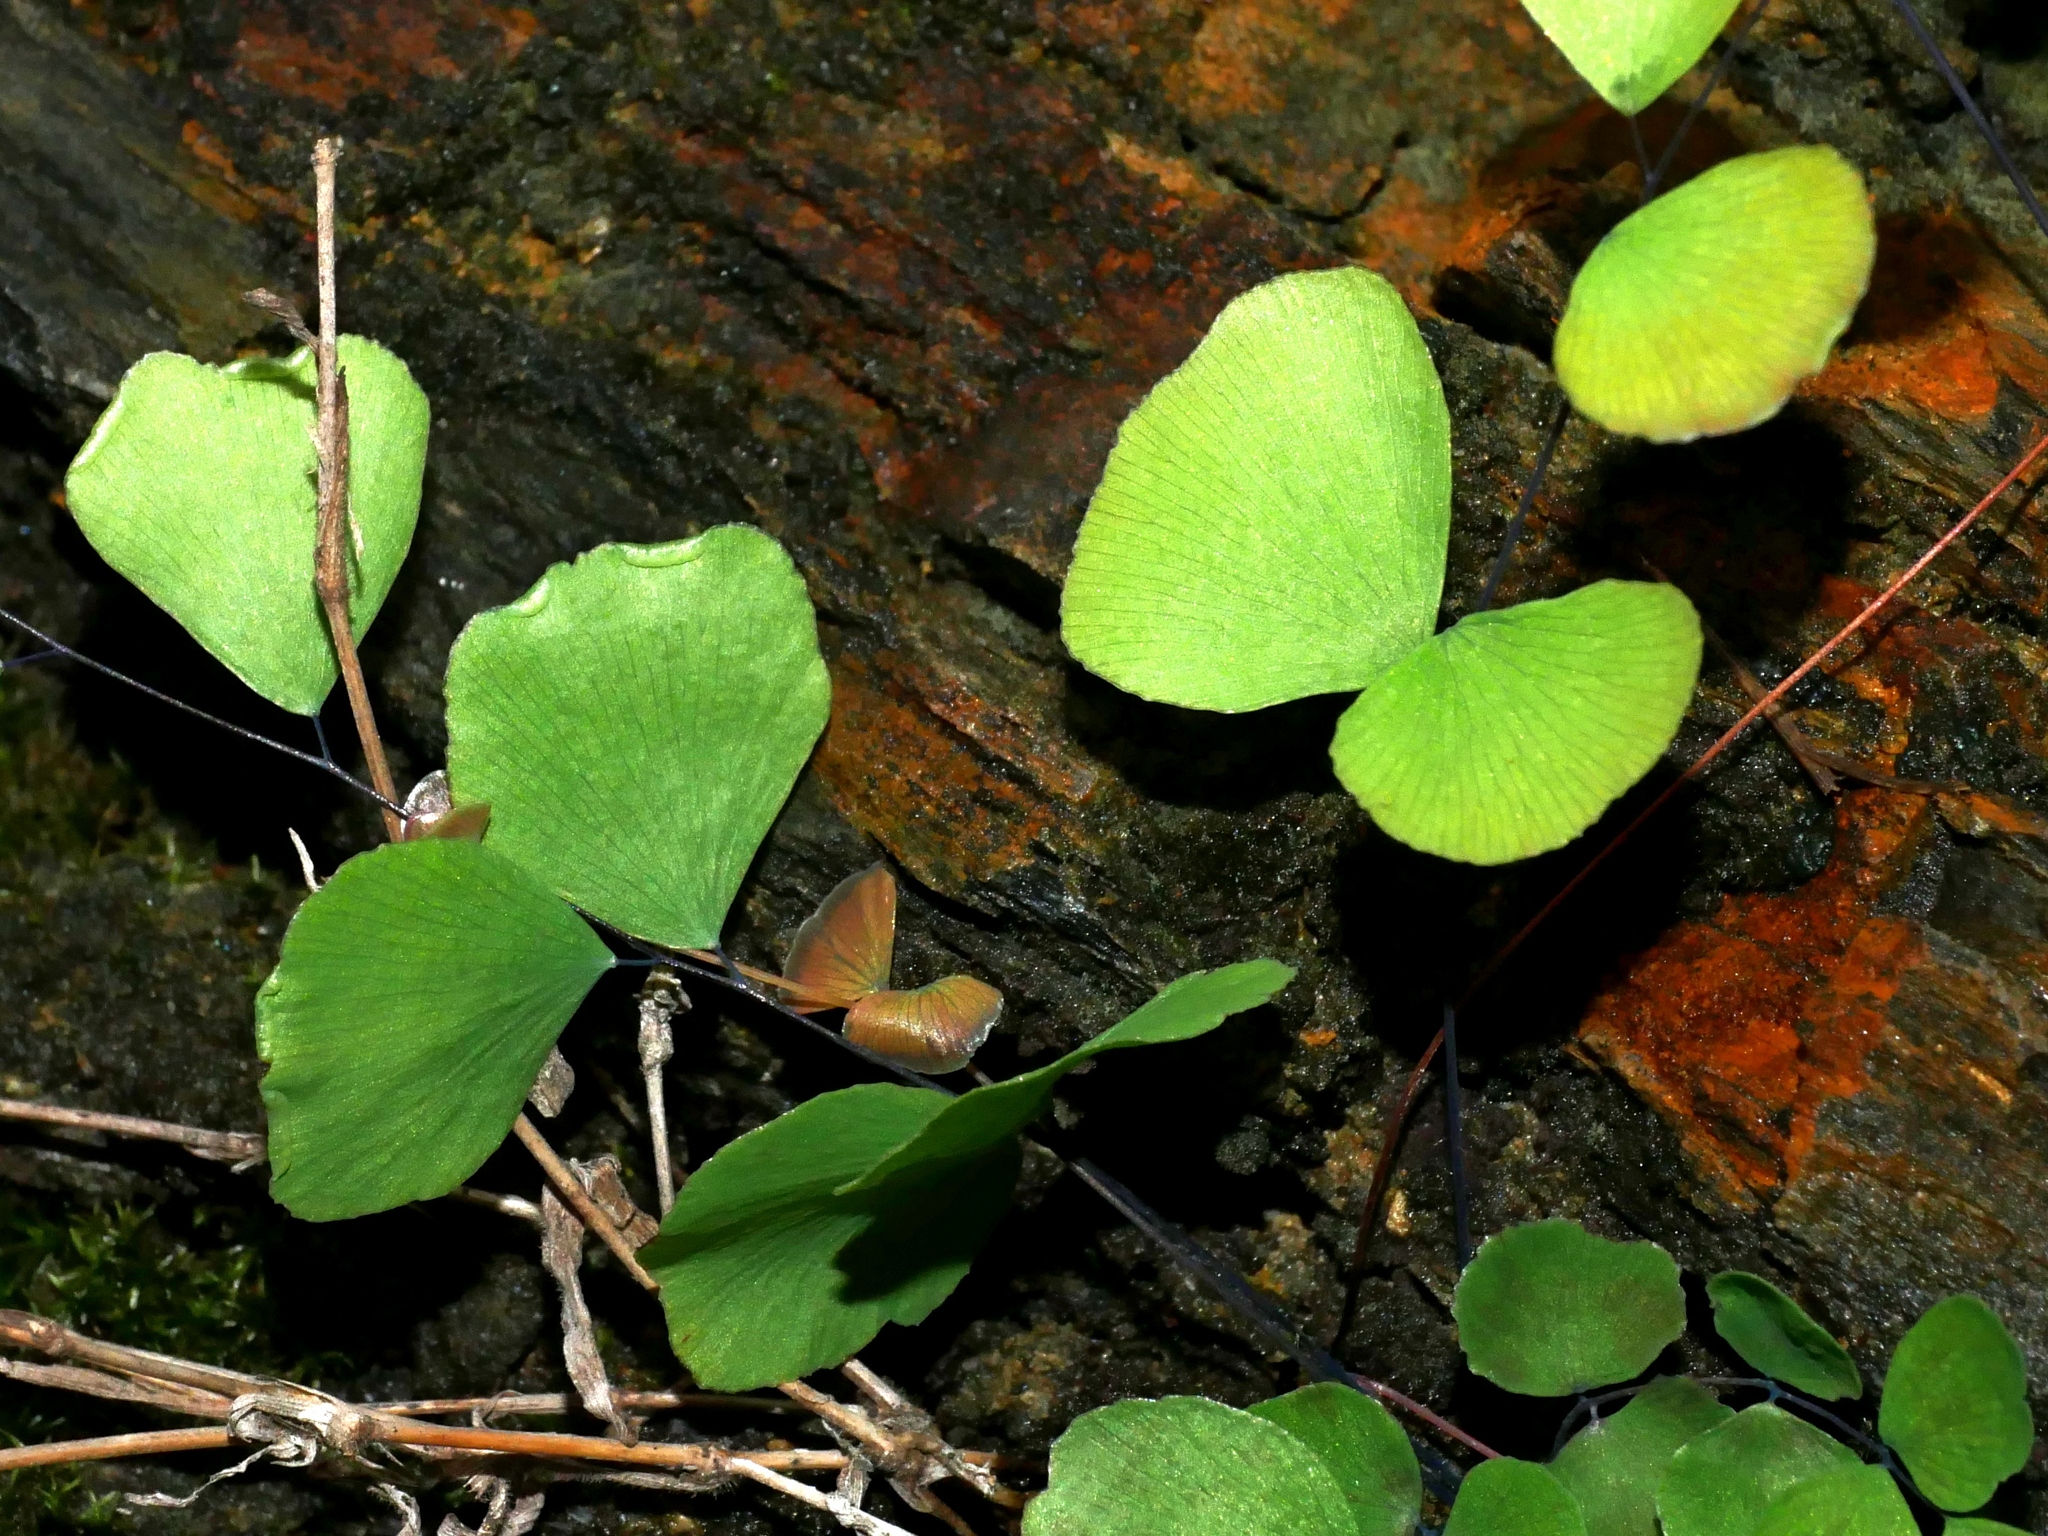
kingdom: Plantae
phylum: Tracheophyta
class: Polypodiopsida
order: Polypodiales
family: Pteridaceae
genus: Adiantum
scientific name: Adiantum capillus-junonis
